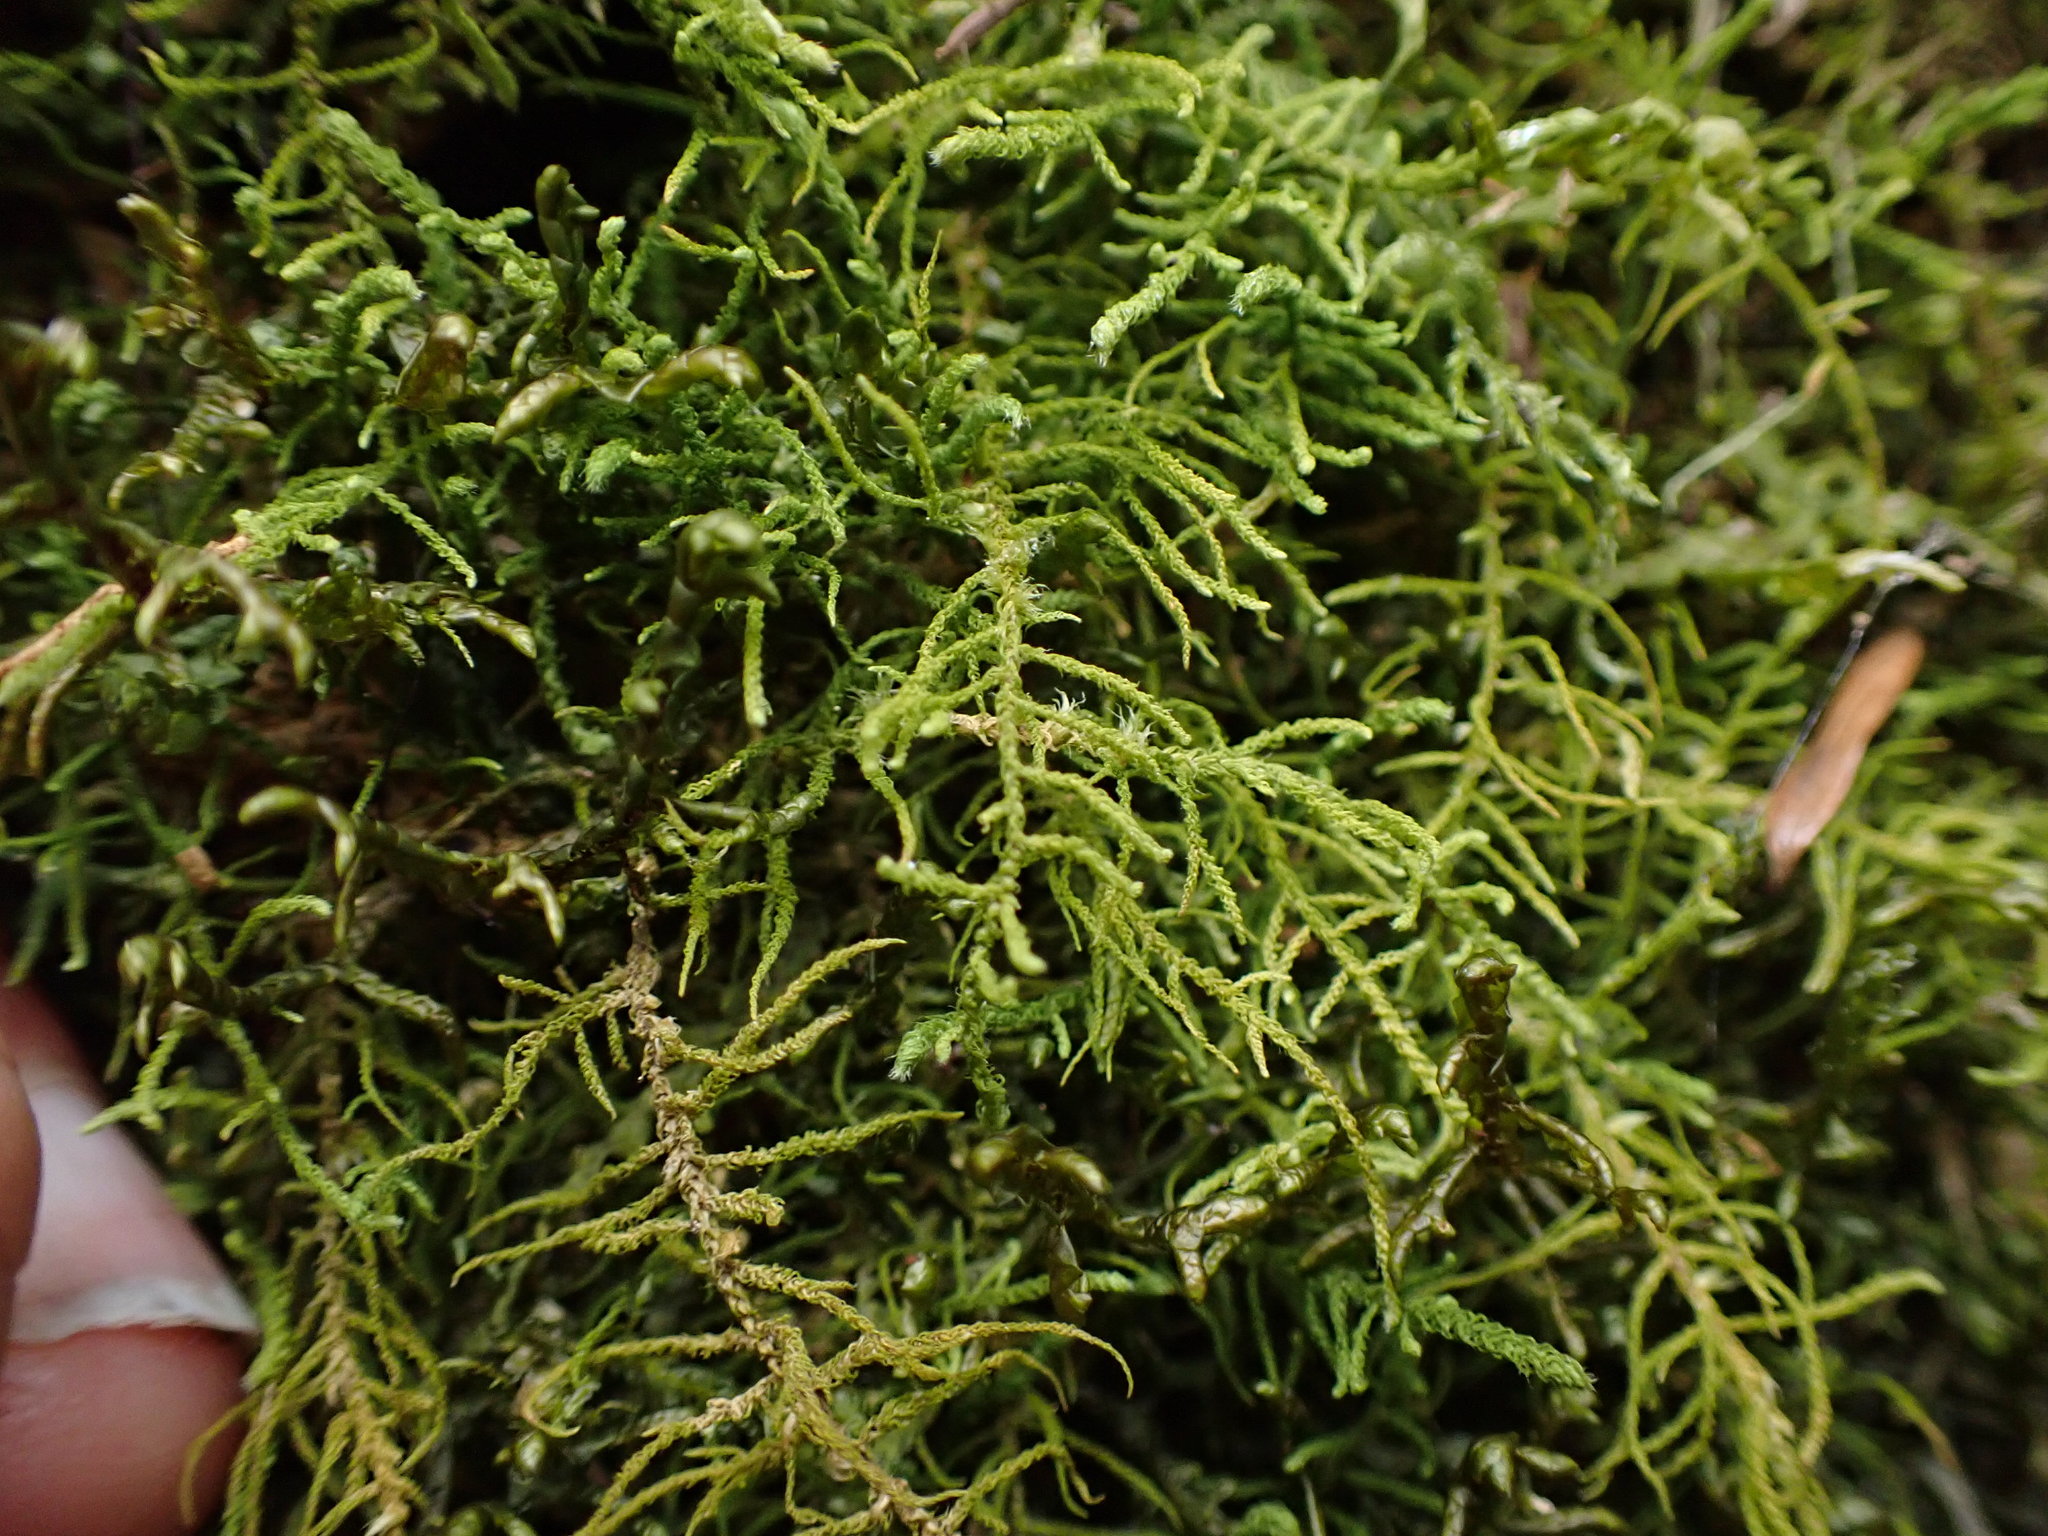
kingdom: Plantae
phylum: Bryophyta
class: Bryopsida
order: Hypnales
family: Brachytheciaceae
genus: Claopodium
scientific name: Claopodium crispifolium
